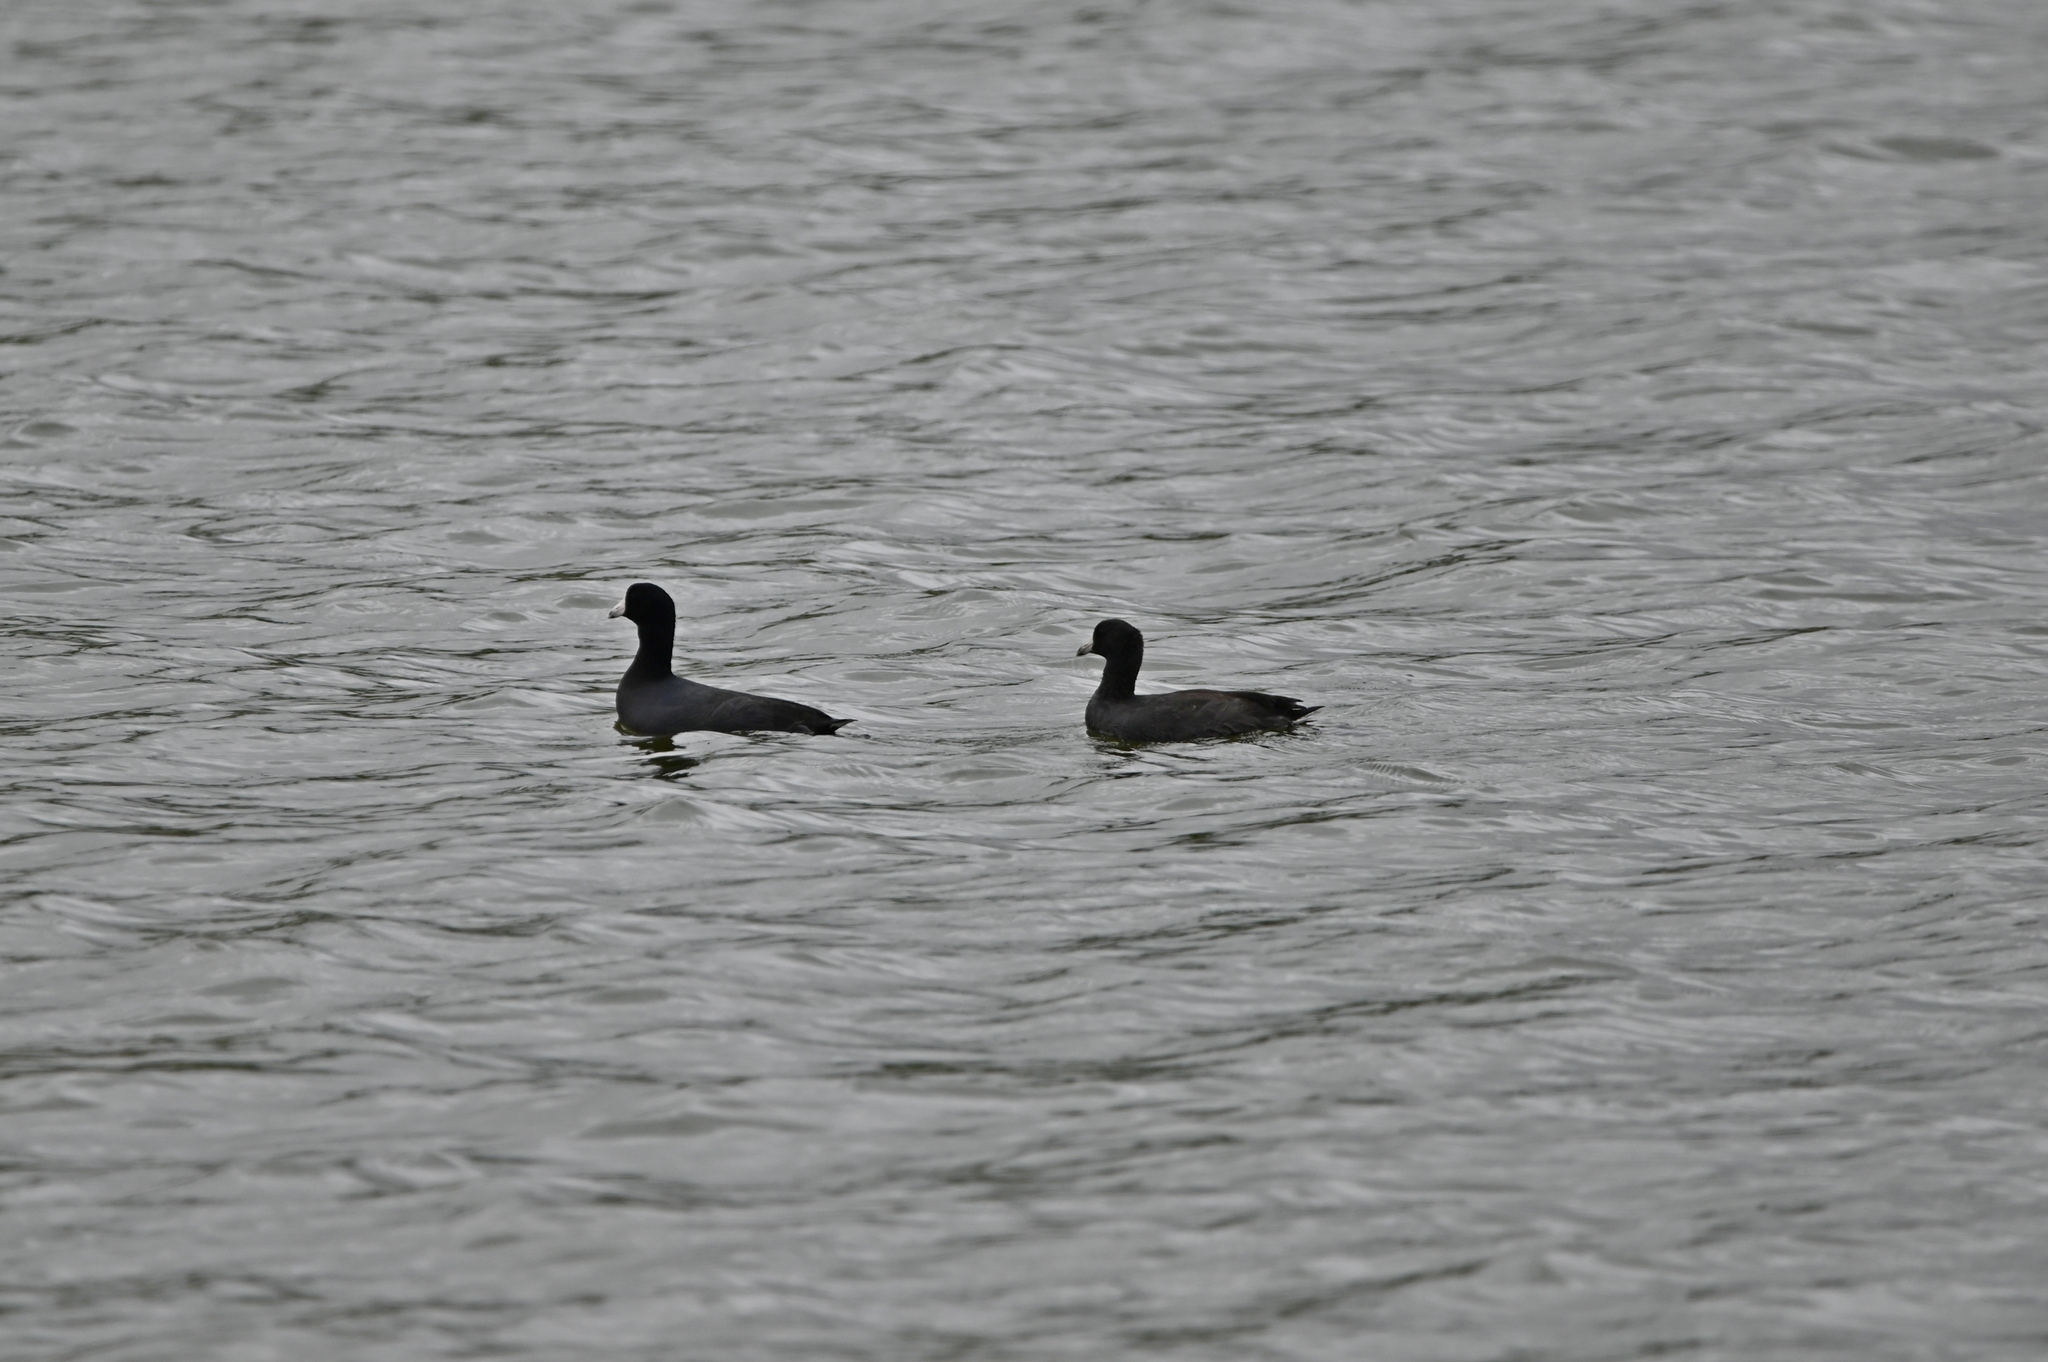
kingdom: Animalia
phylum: Chordata
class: Aves
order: Gruiformes
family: Rallidae
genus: Fulica
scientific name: Fulica americana
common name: American coot
